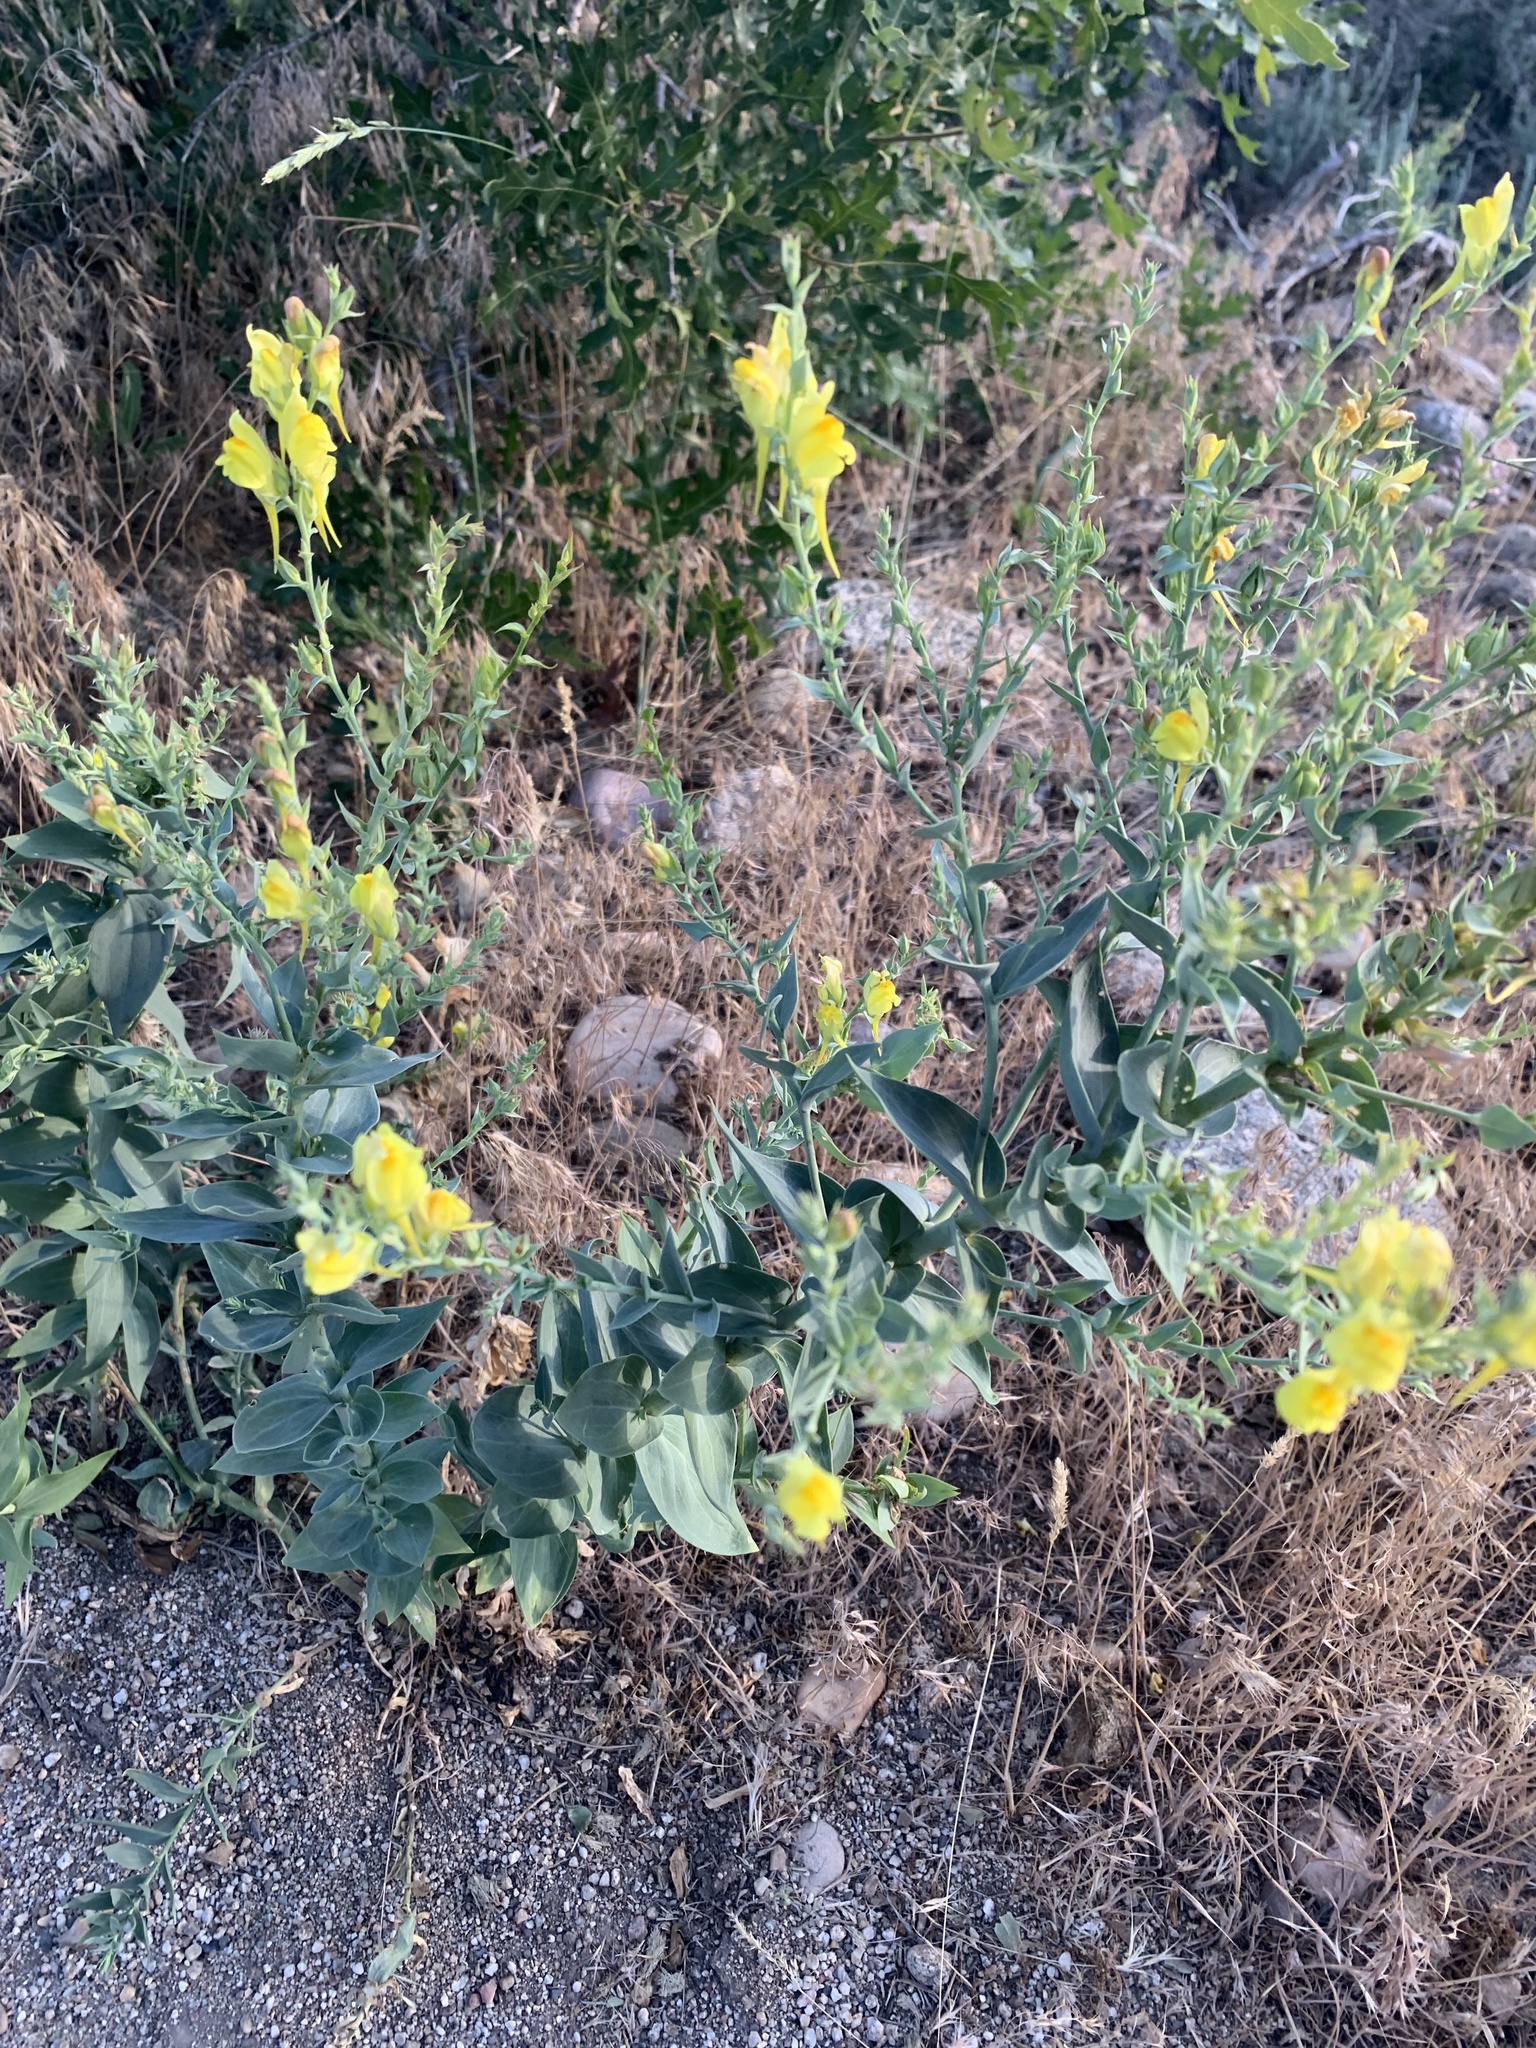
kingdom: Plantae
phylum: Tracheophyta
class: Magnoliopsida
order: Lamiales
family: Plantaginaceae
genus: Linaria
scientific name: Linaria dalmatica
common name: Dalmatian toadflax
